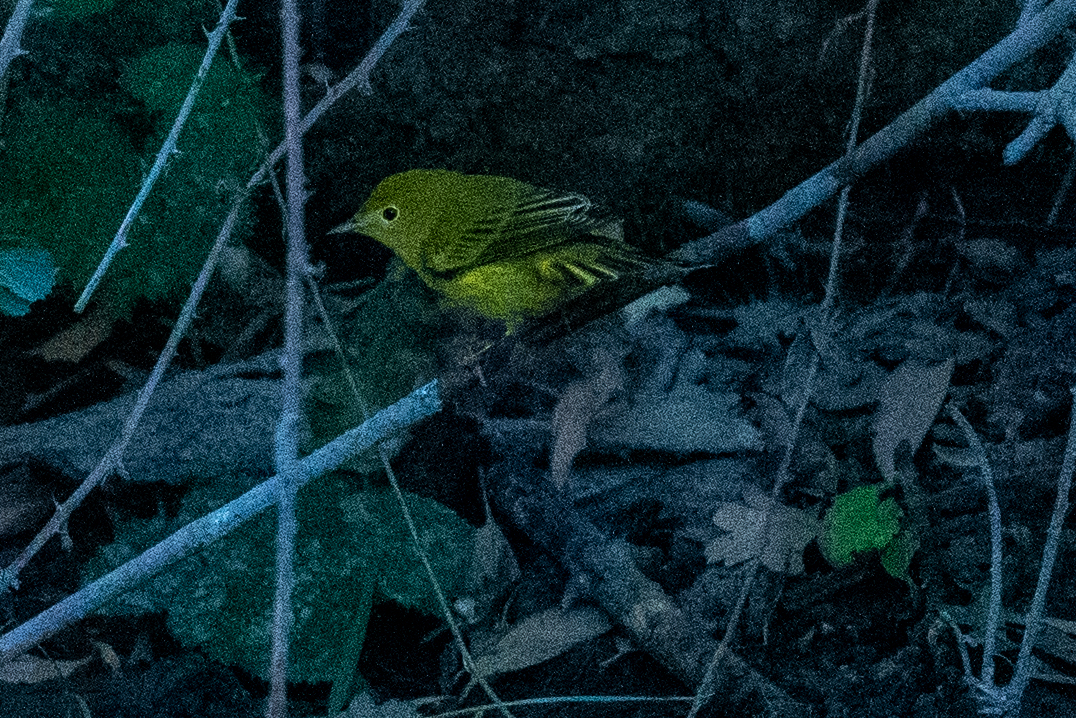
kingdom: Animalia
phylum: Chordata
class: Aves
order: Passeriformes
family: Parulidae
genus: Setophaga
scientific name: Setophaga petechia
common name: Yellow warbler
